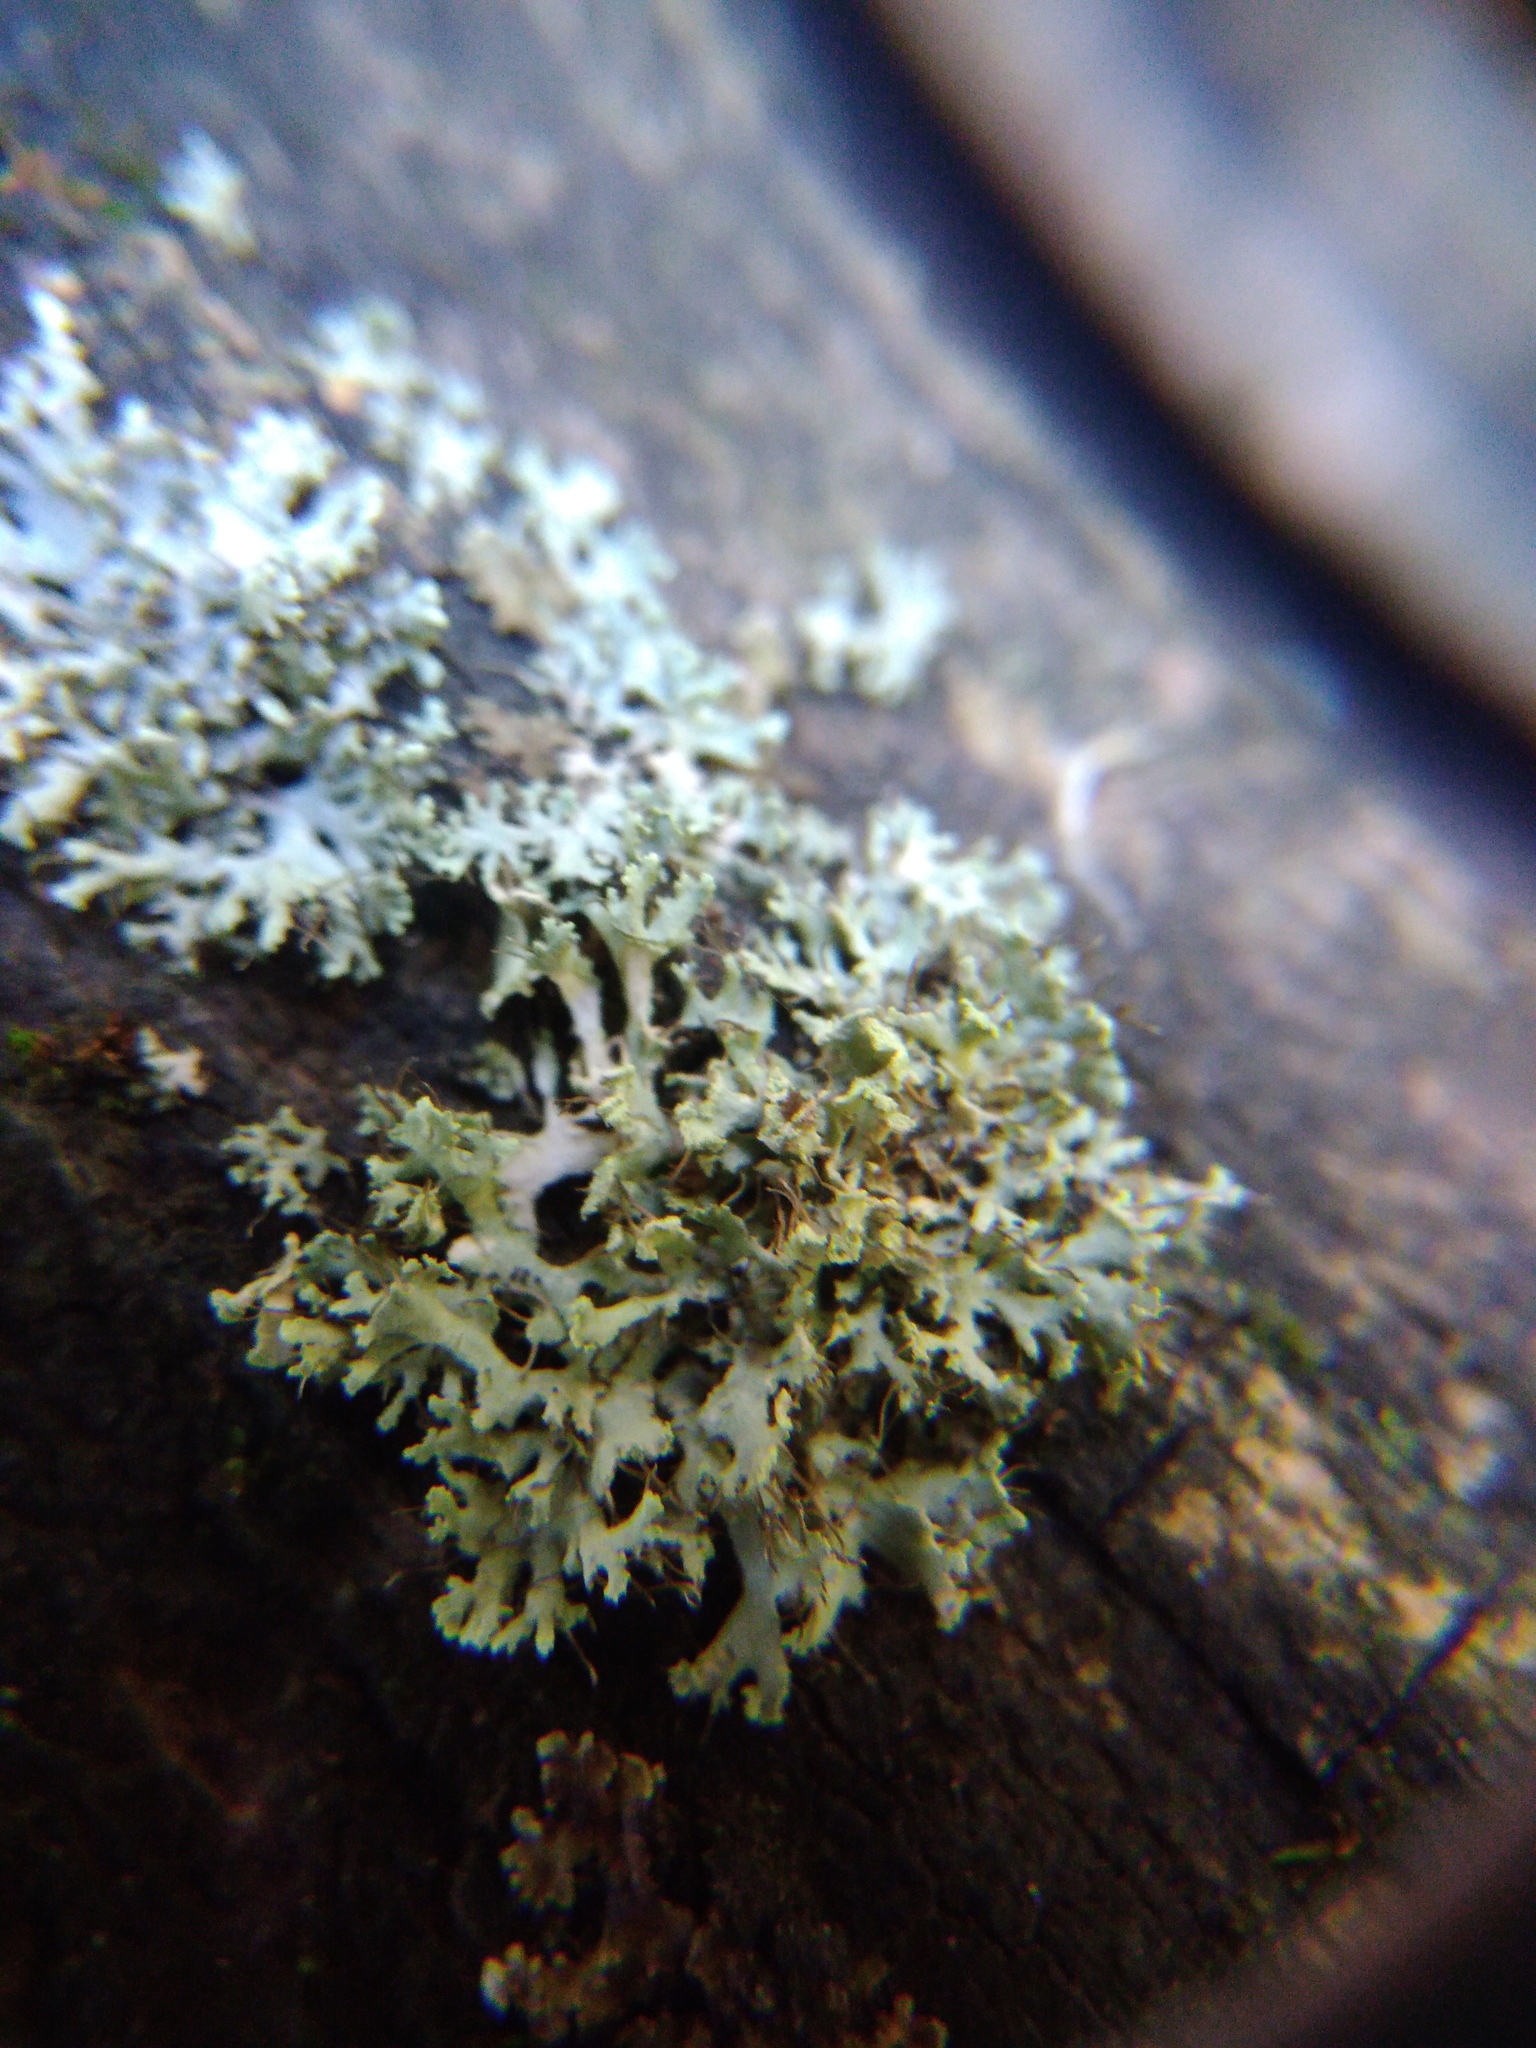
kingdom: Fungi
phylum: Ascomycota
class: Lecanoromycetes
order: Caliciales
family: Physciaceae
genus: Physcia
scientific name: Physcia tenella
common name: Fringed rosette lichen
